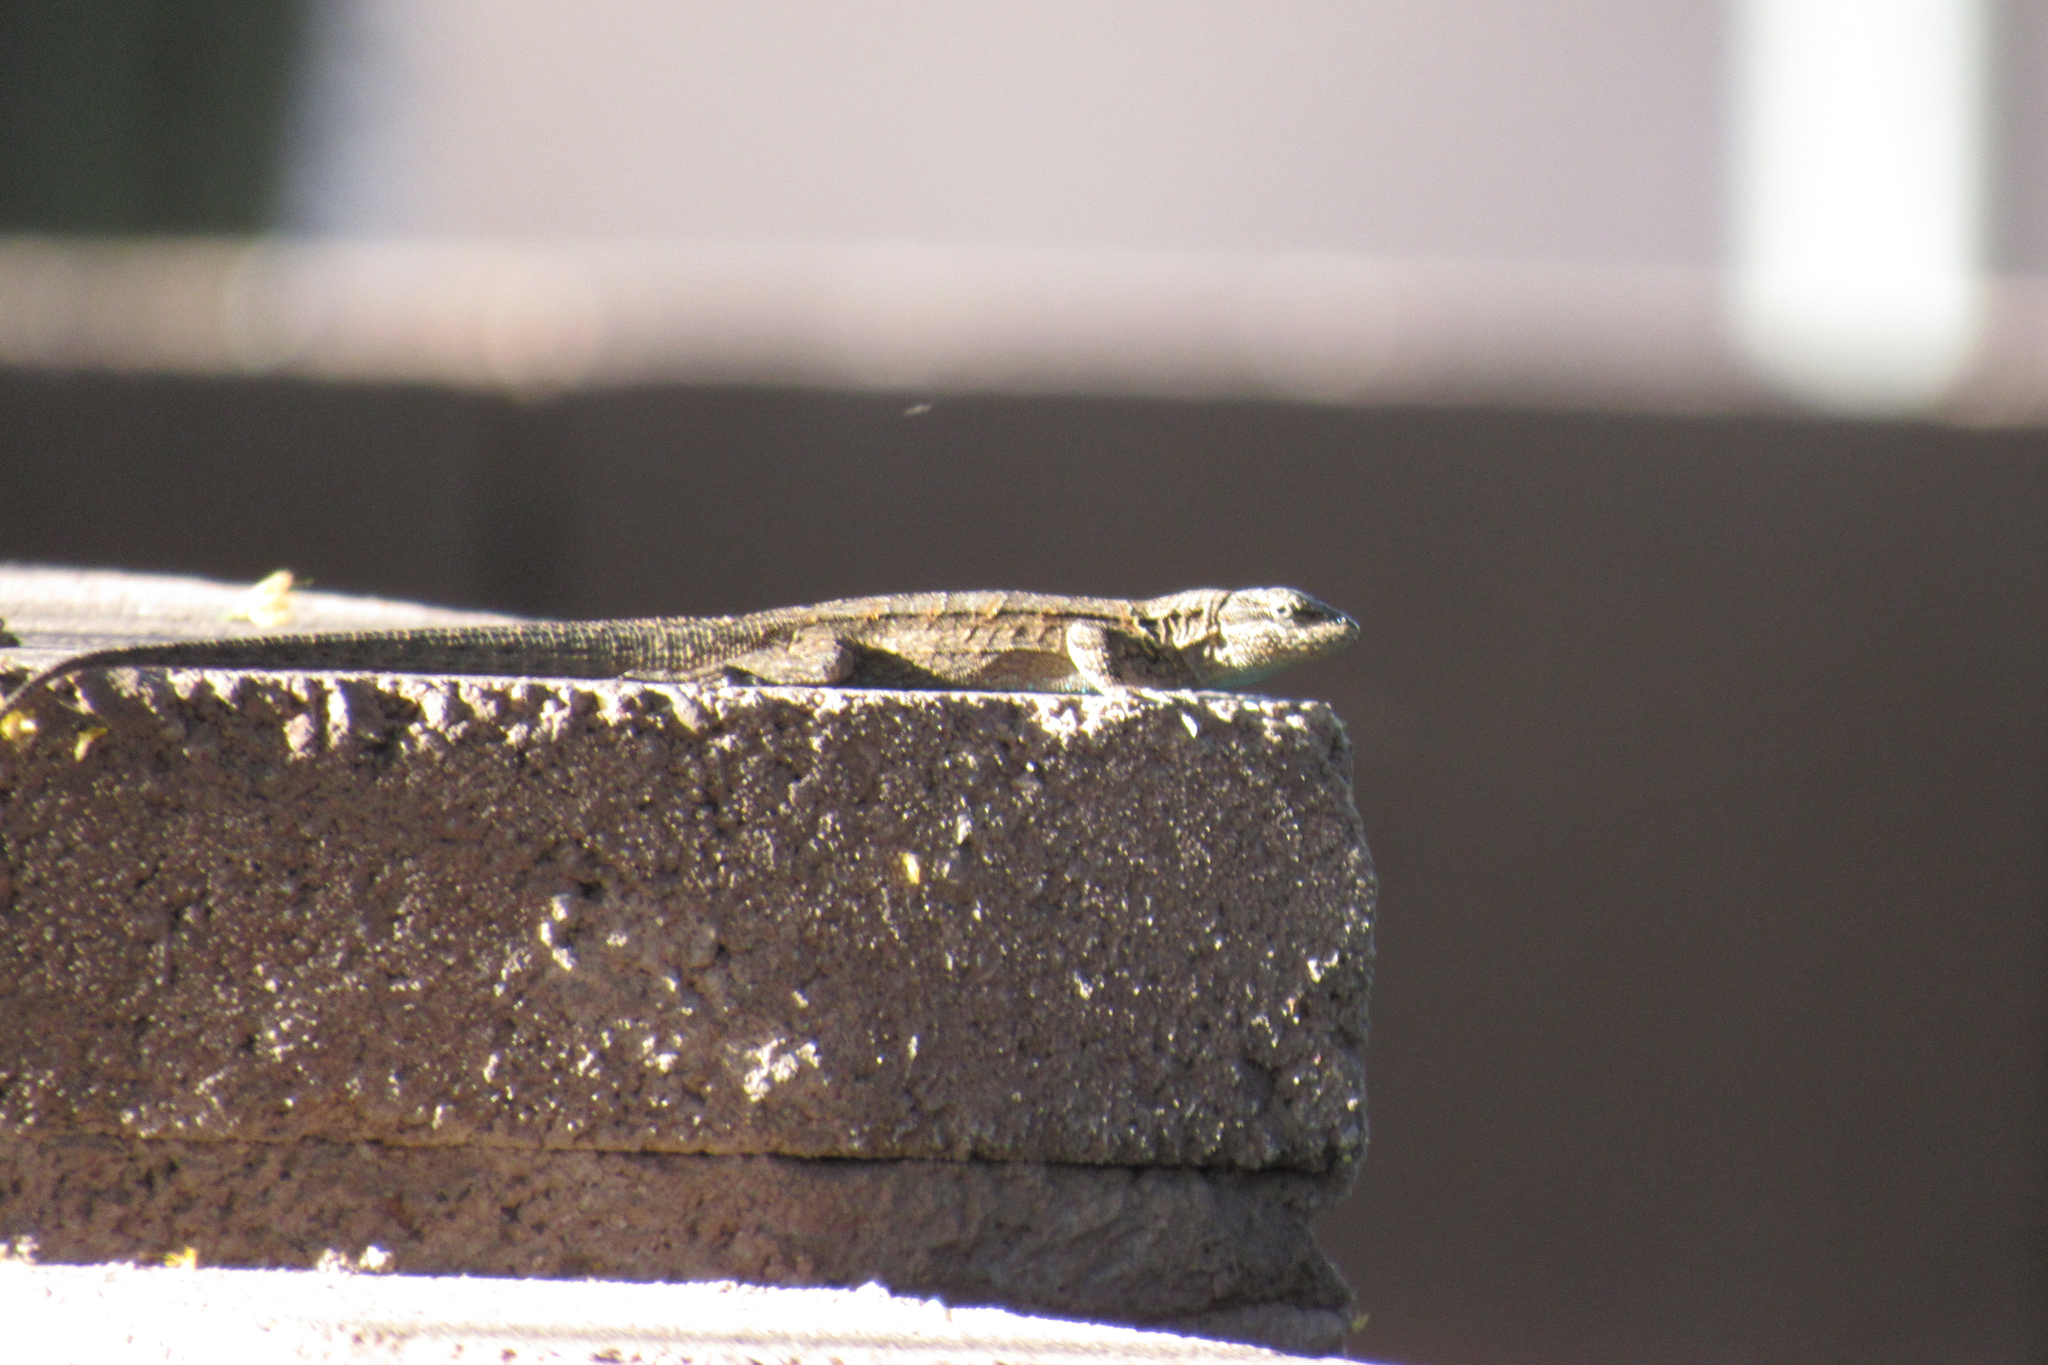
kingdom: Animalia
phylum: Chordata
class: Squamata
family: Phrynosomatidae
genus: Urosaurus
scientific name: Urosaurus ornatus
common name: Ornate tree lizard
